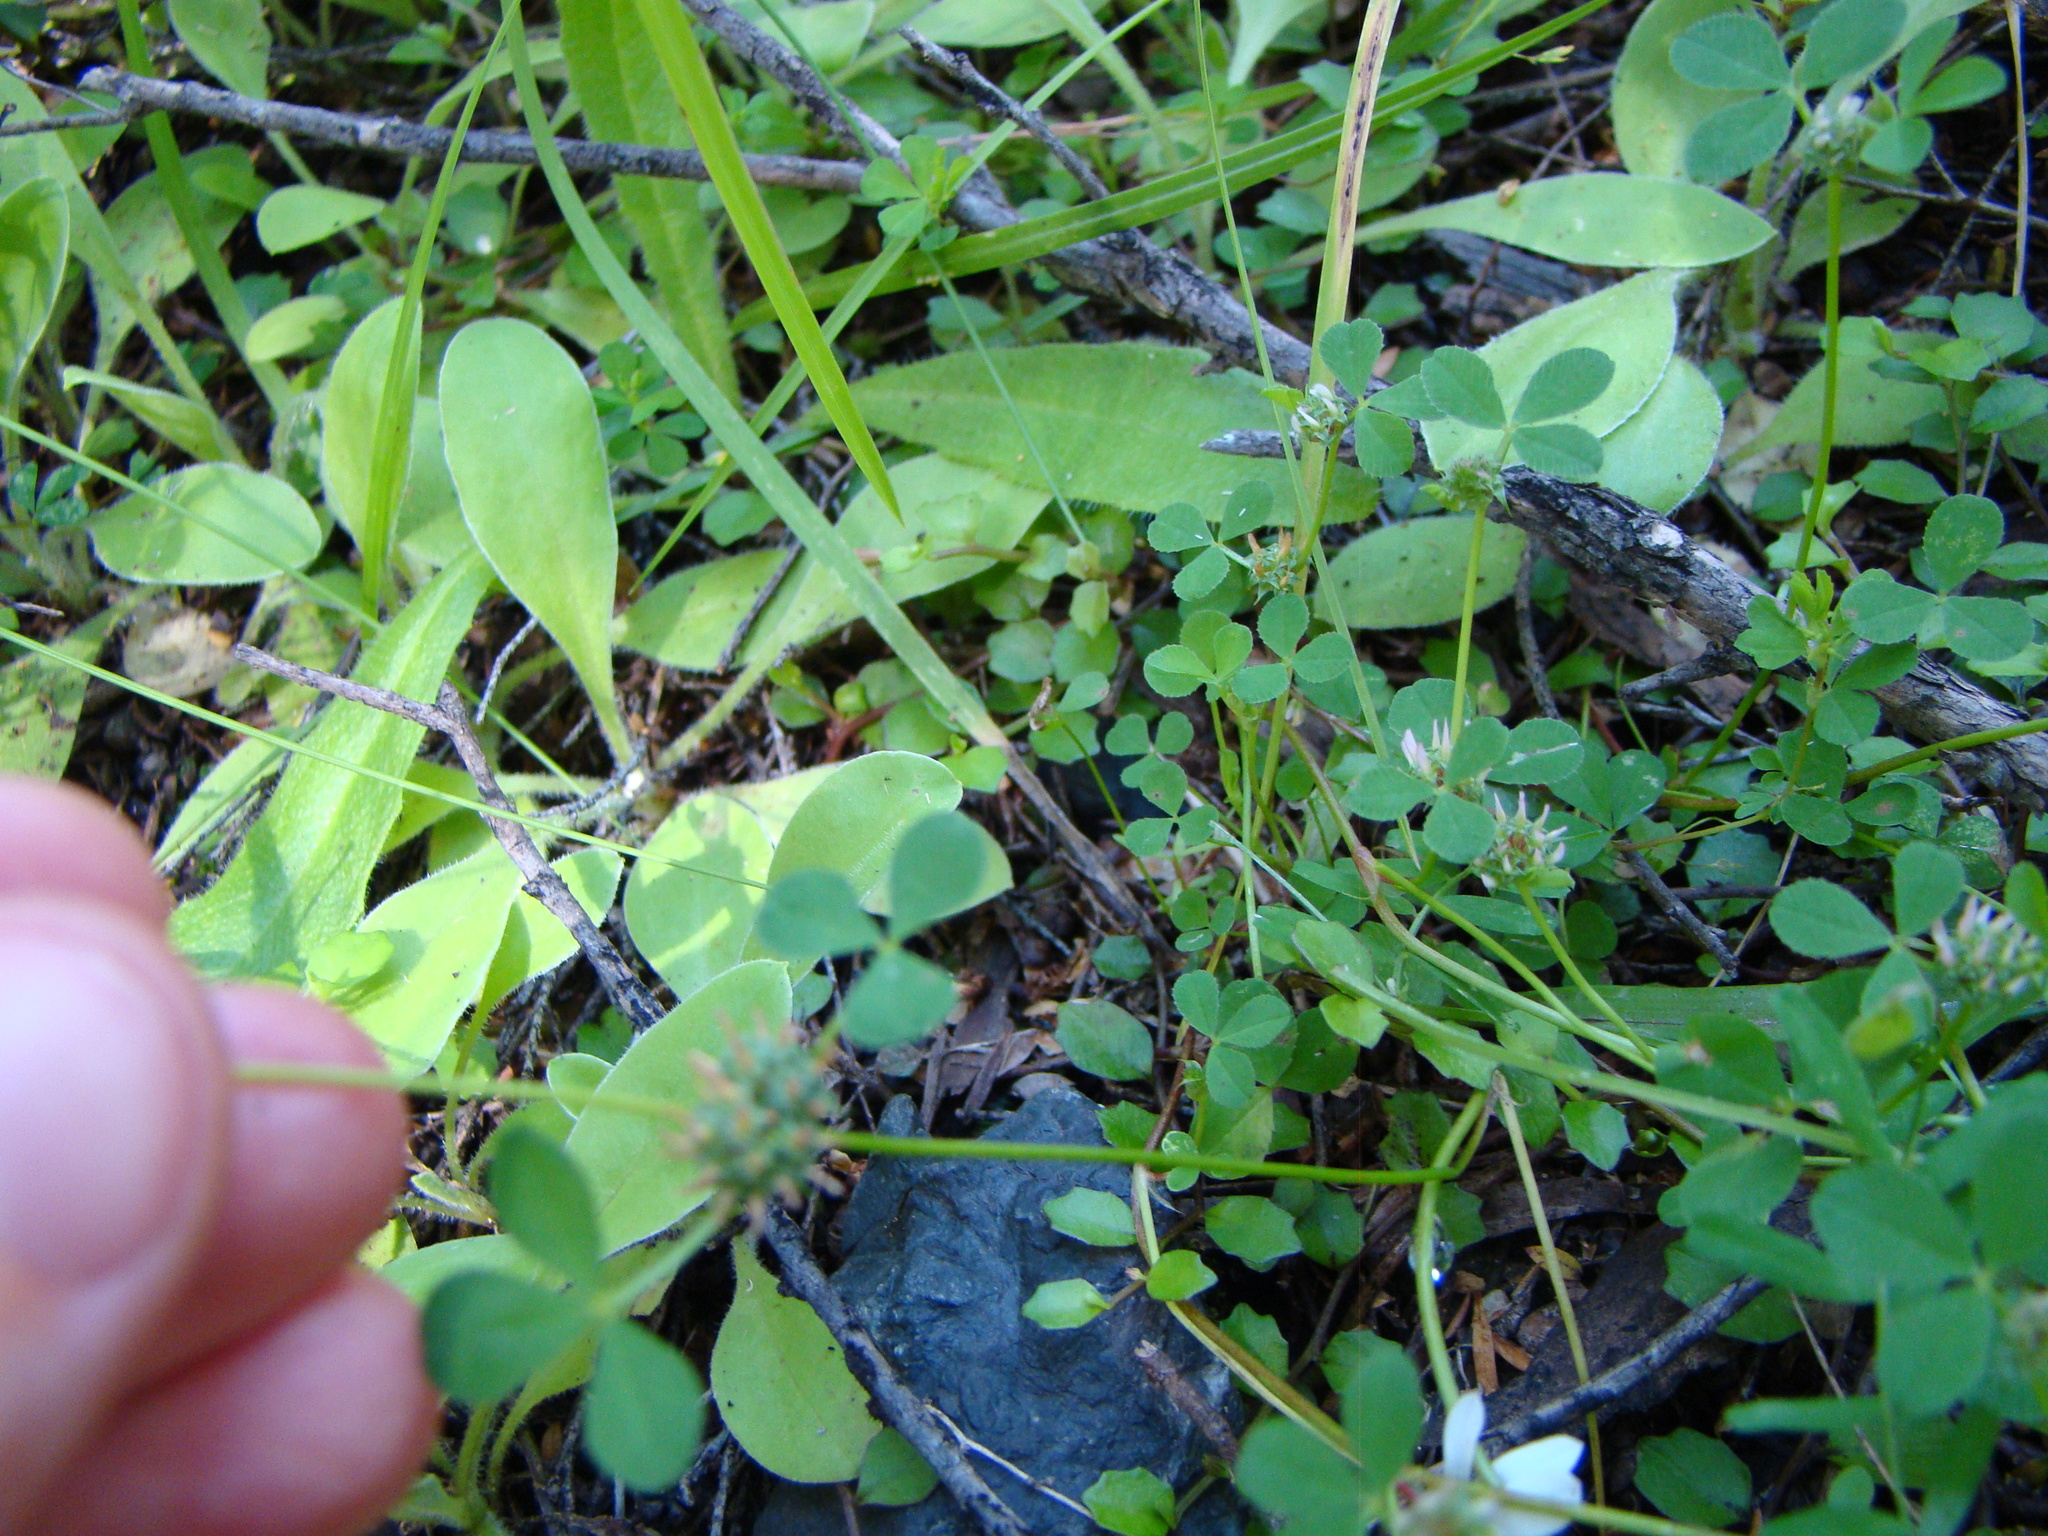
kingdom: Plantae
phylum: Tracheophyta
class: Magnoliopsida
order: Fabales
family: Fabaceae
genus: Trifolium
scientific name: Trifolium glomeratum
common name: Clustered clover
